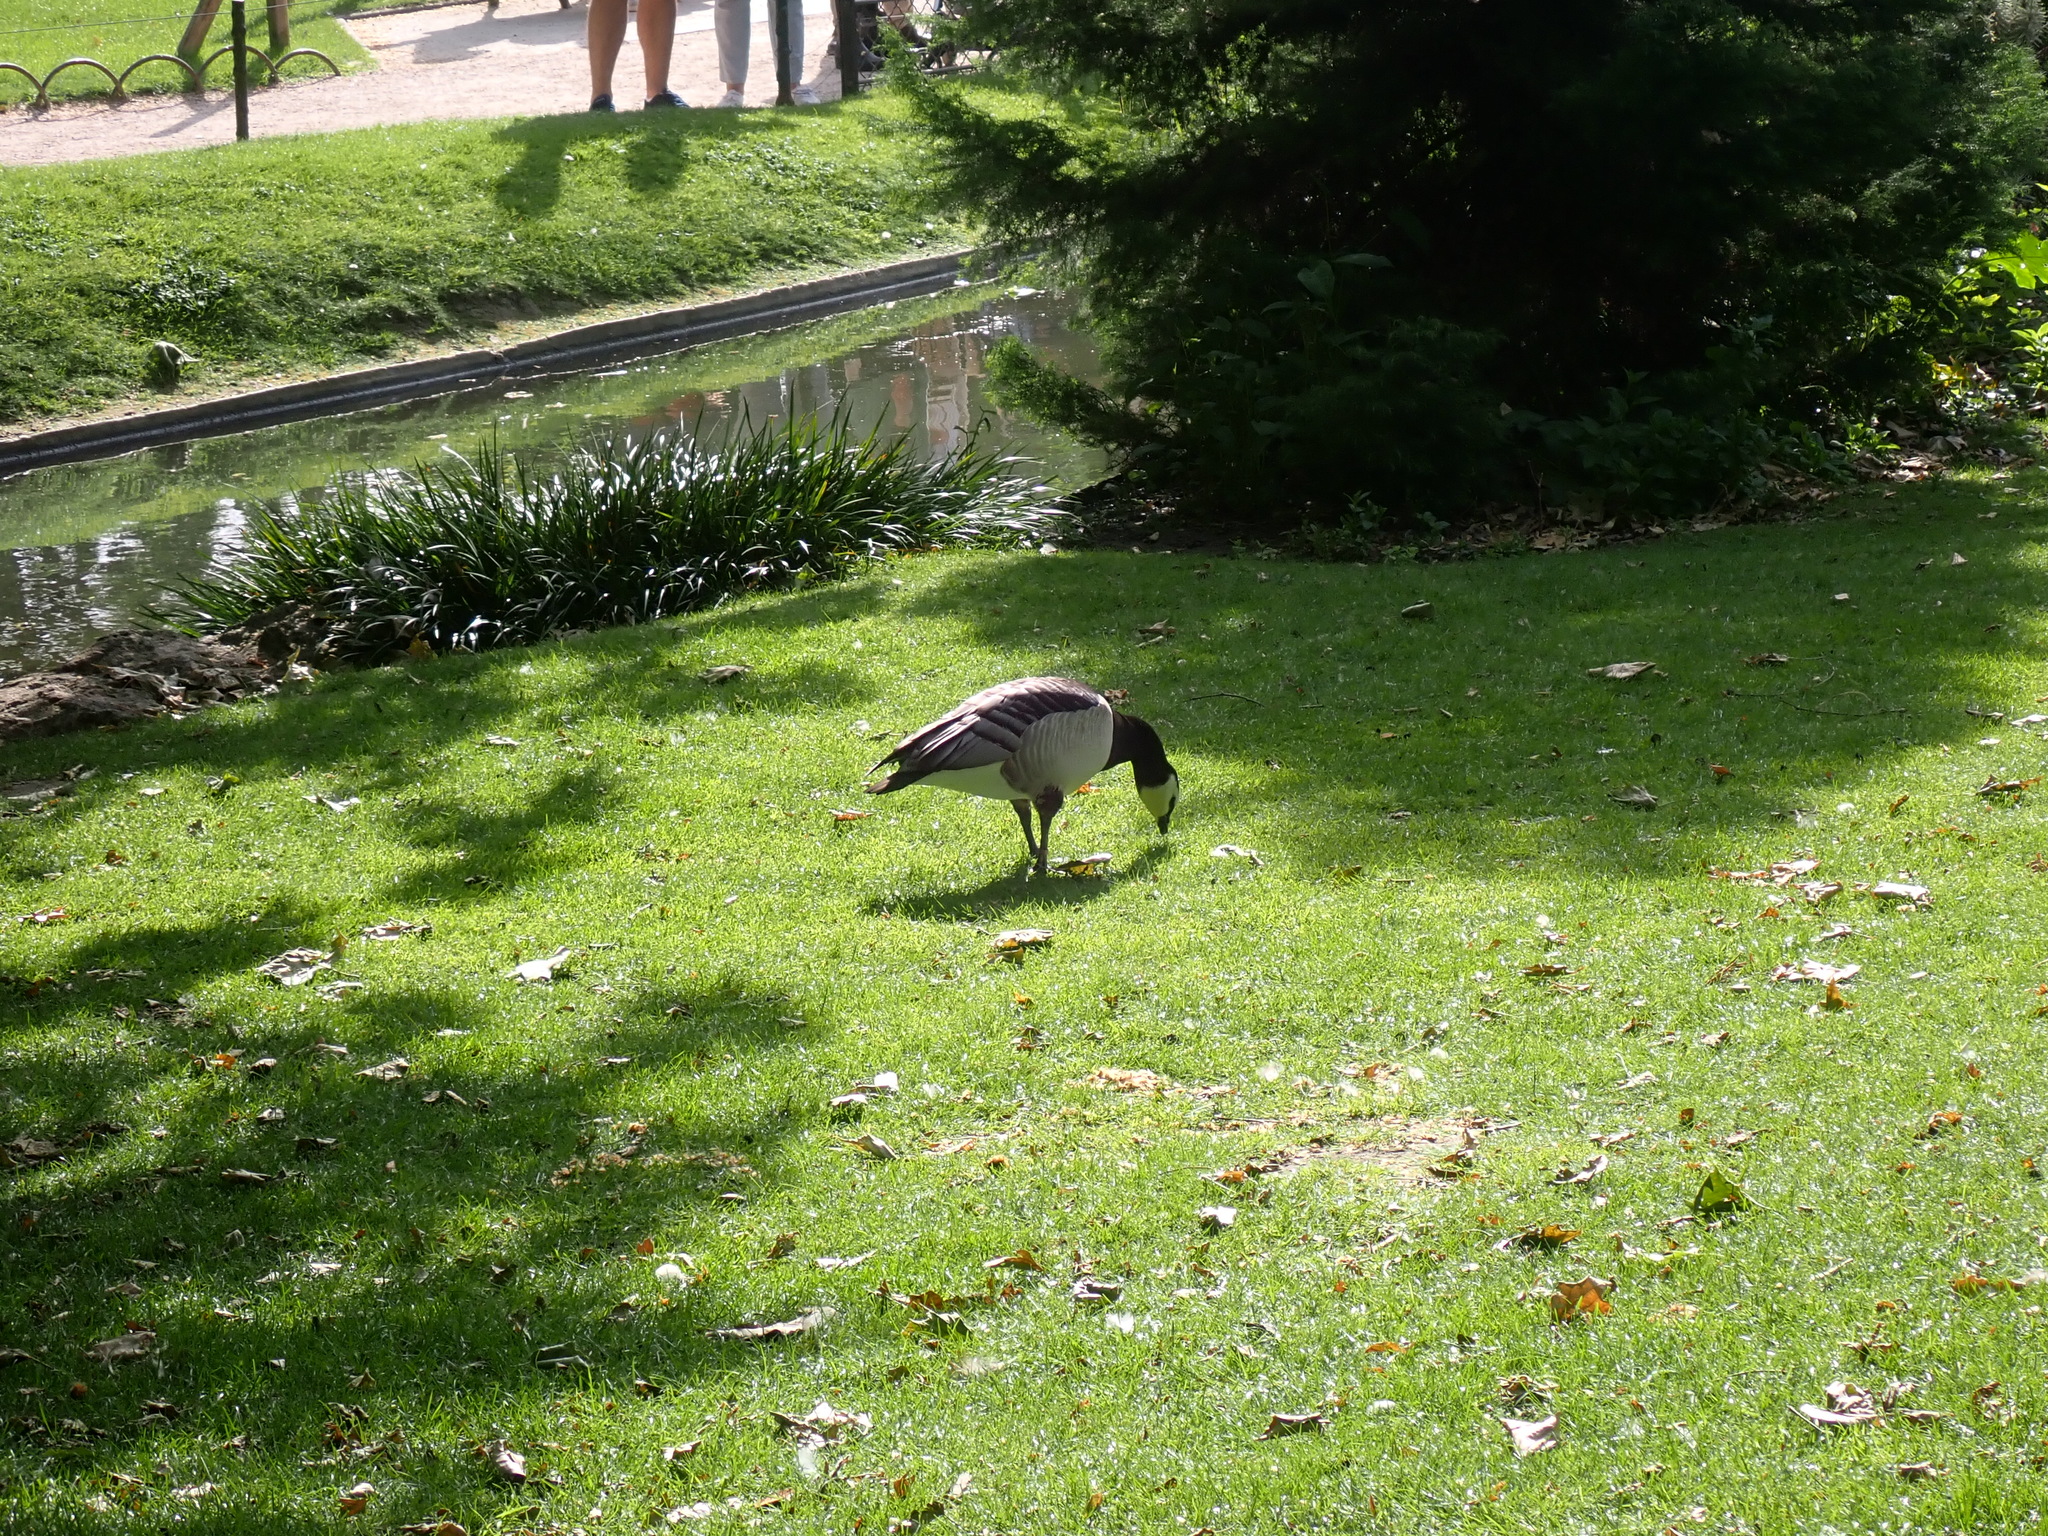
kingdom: Animalia
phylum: Chordata
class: Aves
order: Anseriformes
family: Anatidae
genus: Branta
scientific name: Branta leucopsis
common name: Barnacle goose
